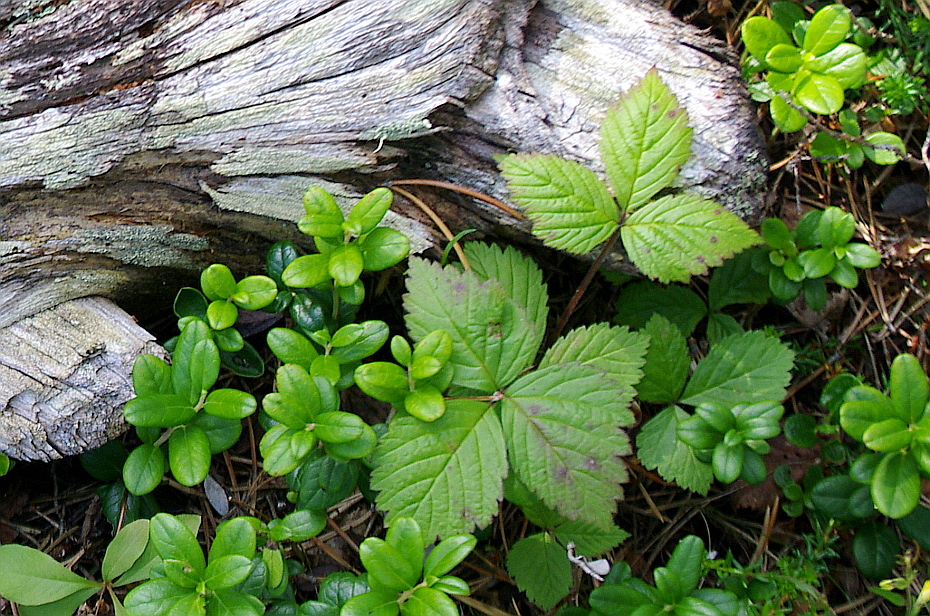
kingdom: Plantae
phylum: Tracheophyta
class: Magnoliopsida
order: Rosales
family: Rosaceae
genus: Rubus
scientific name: Rubus saxatilis
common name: Stone bramble
